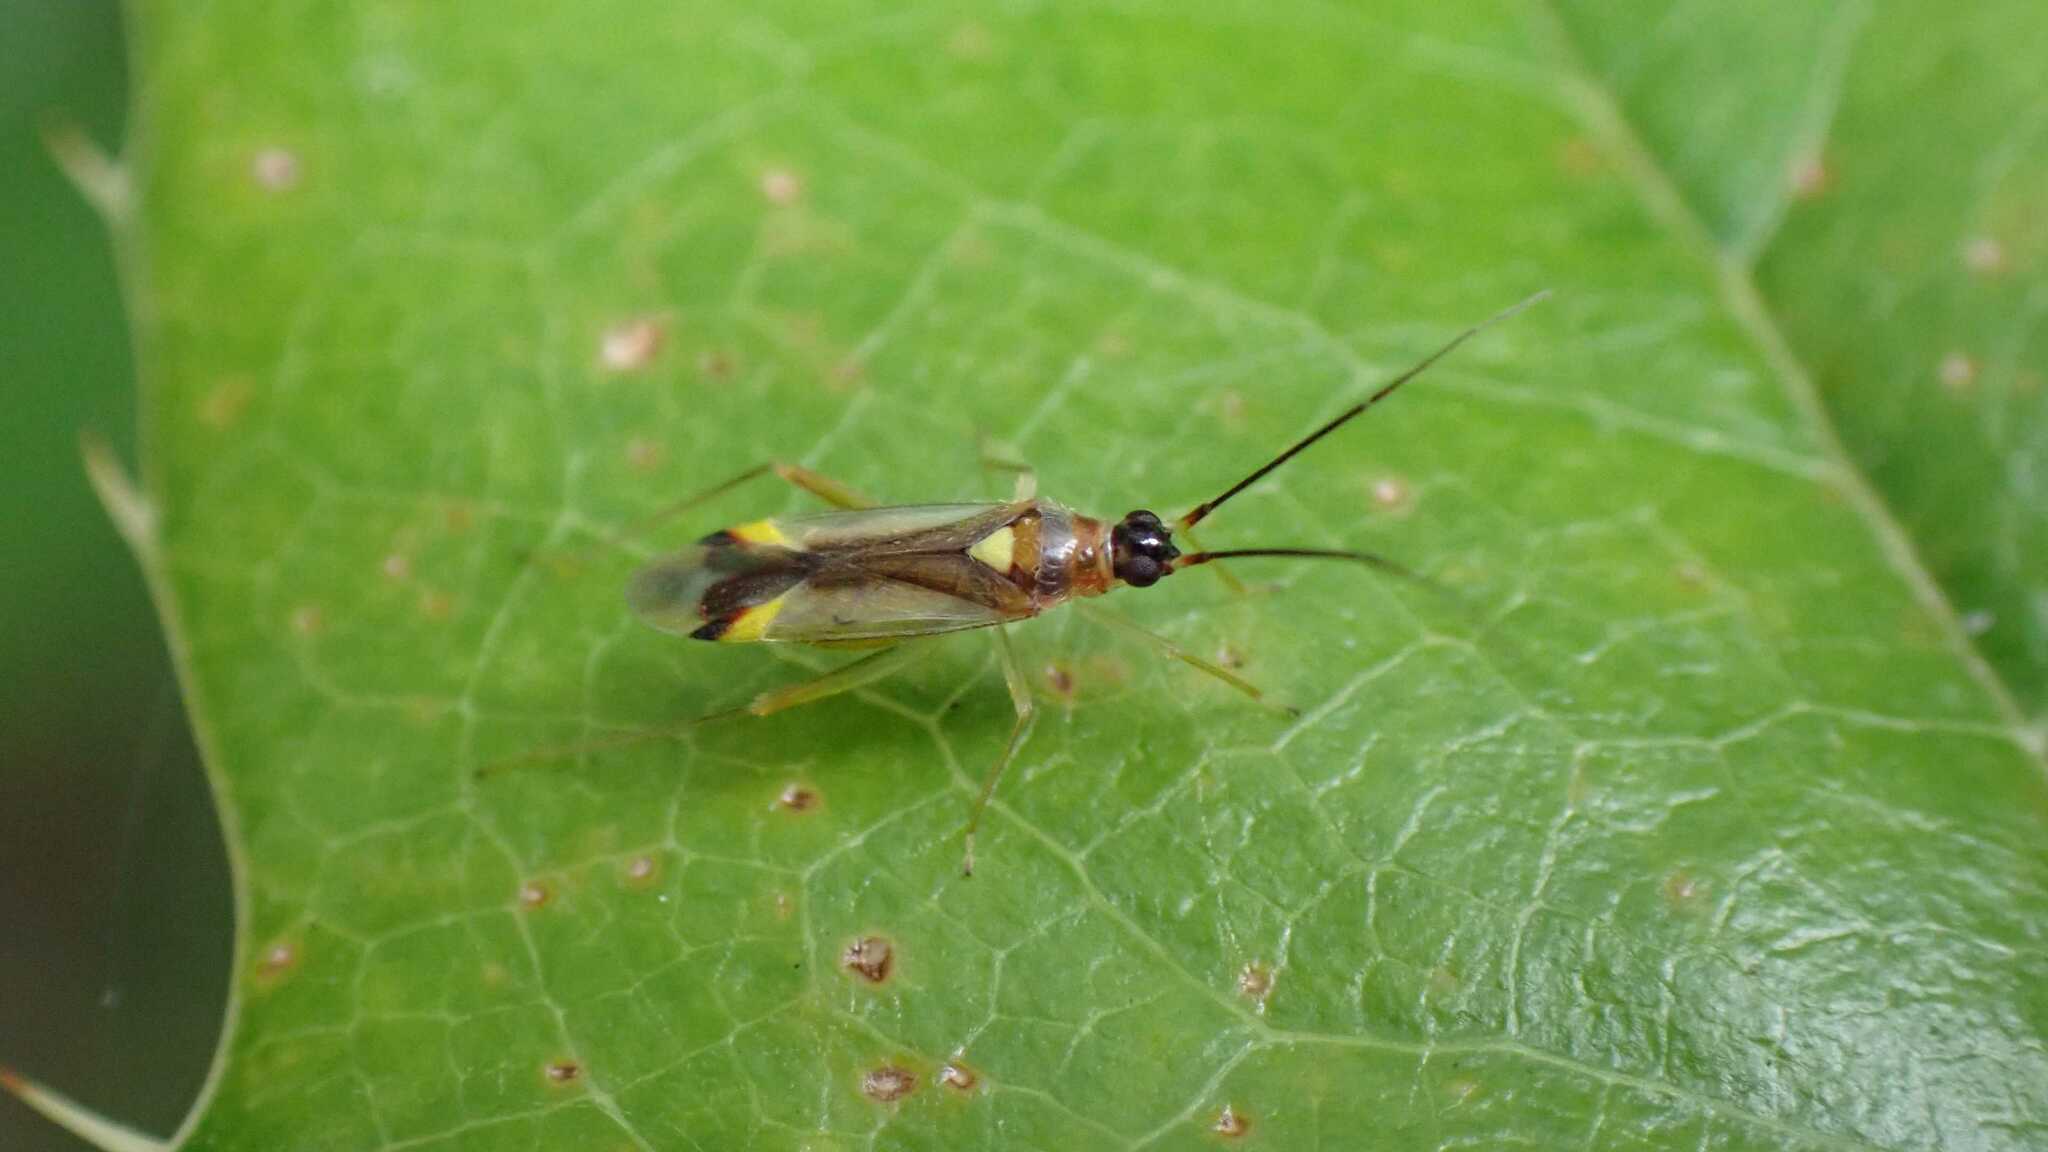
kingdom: Animalia
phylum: Arthropoda
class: Insecta
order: Hemiptera
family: Miridae
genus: Campyloneura
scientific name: Campyloneura virgula
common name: Predatory bug
